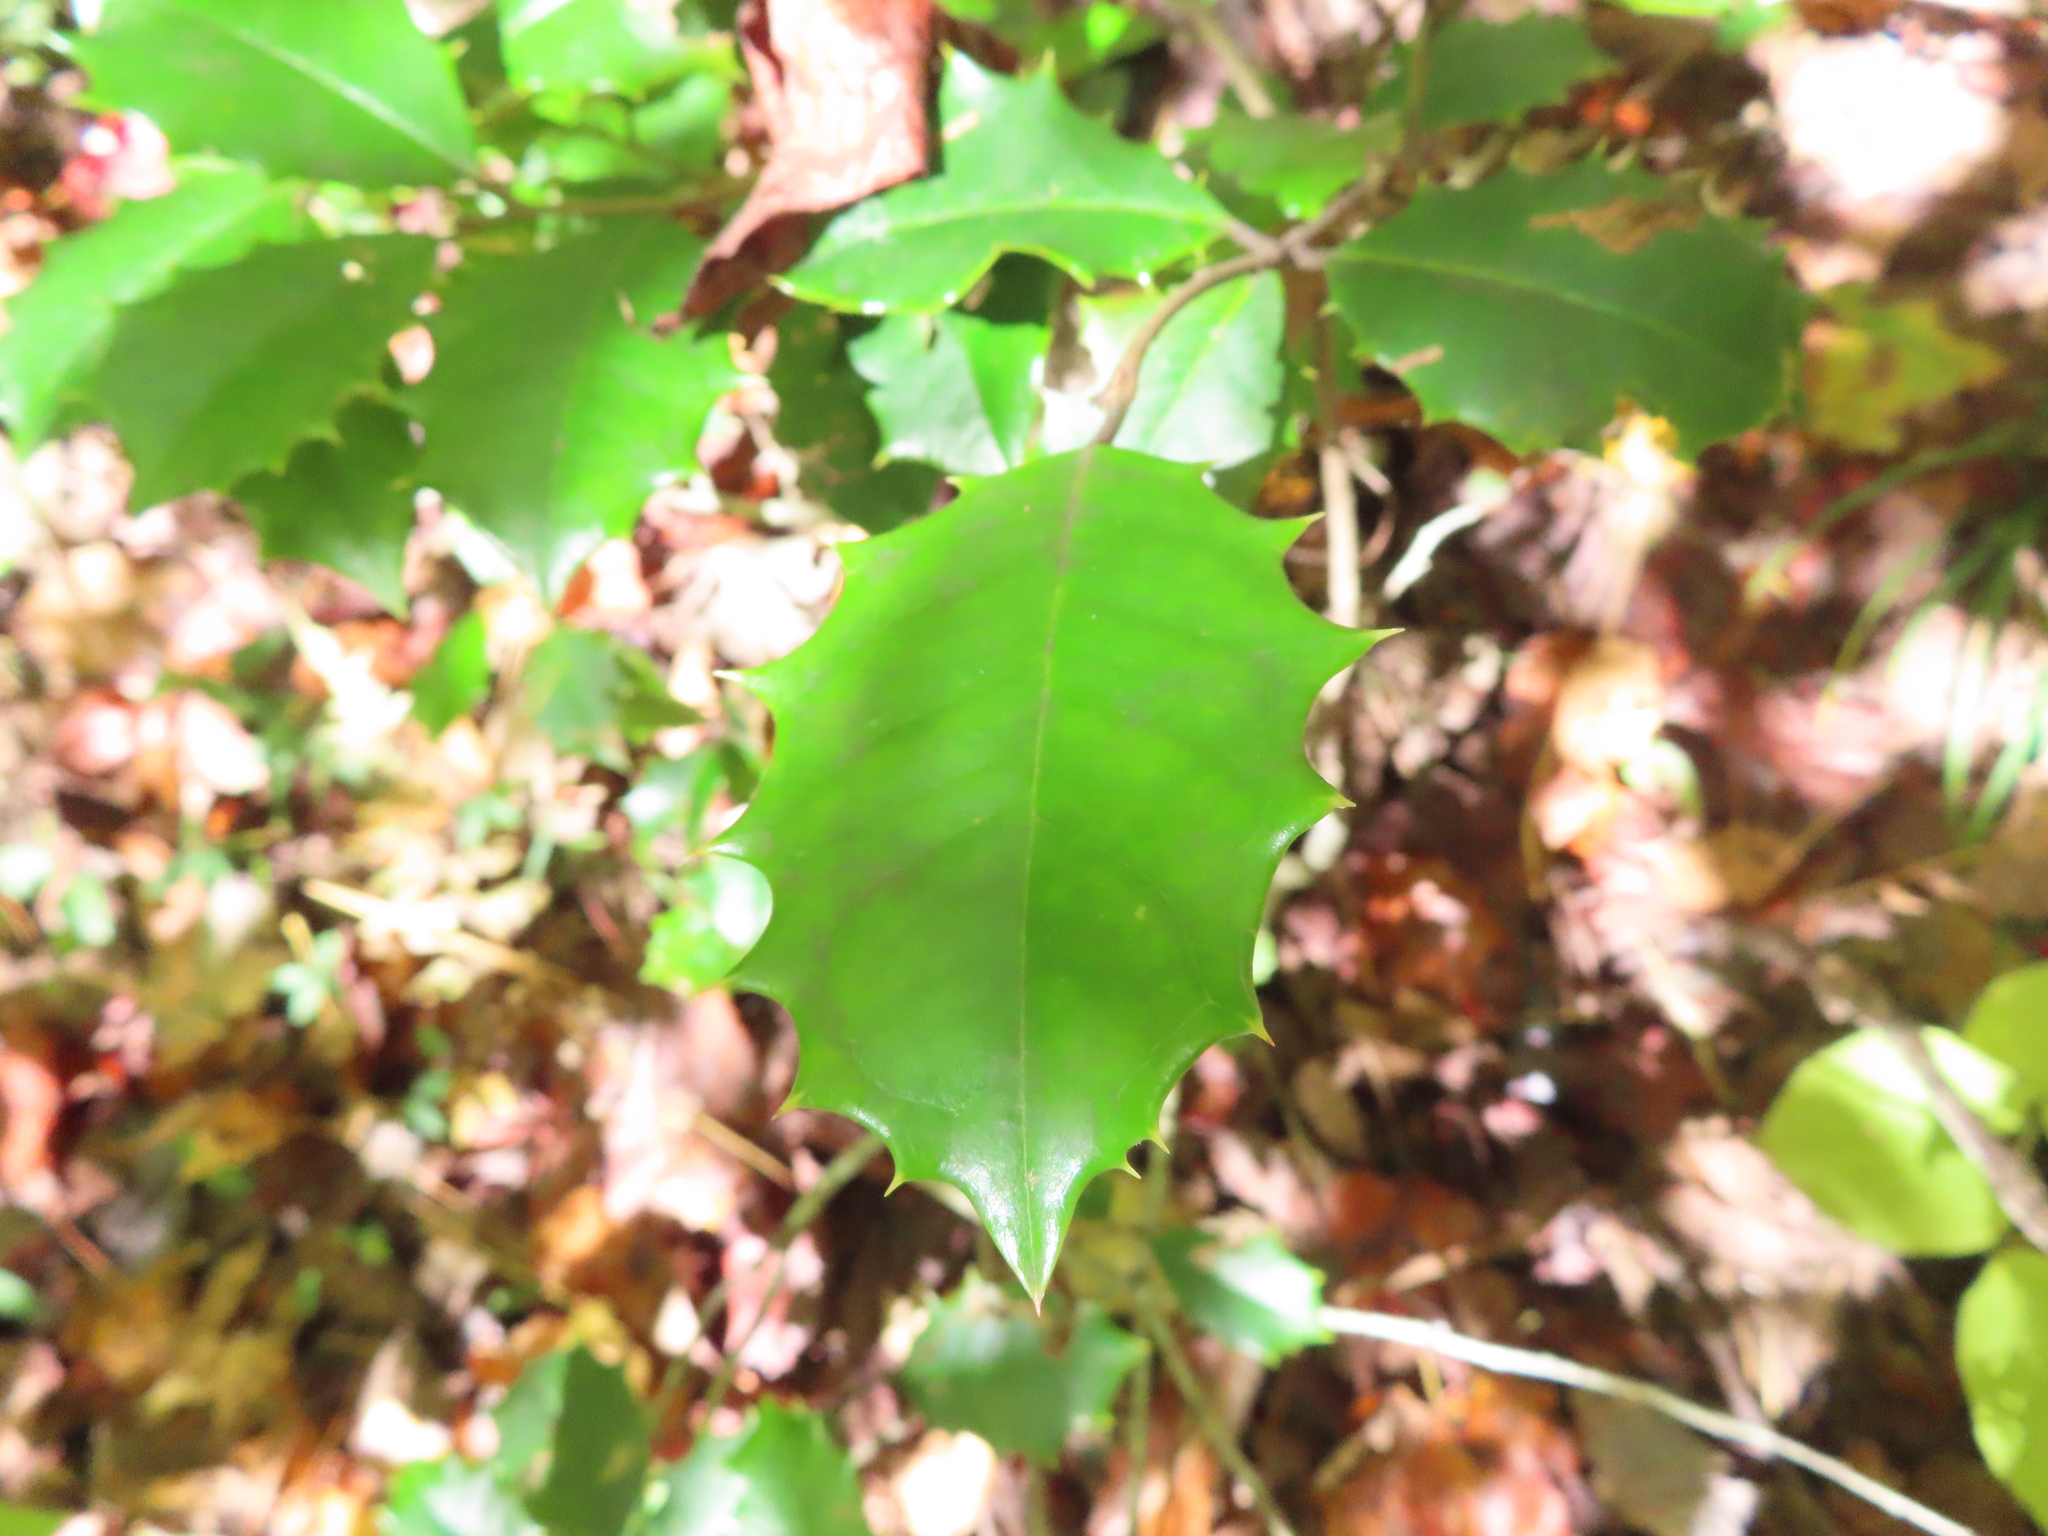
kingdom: Plantae
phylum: Tracheophyta
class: Magnoliopsida
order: Aquifoliales
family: Aquifoliaceae
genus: Ilex
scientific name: Ilex opaca
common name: American holly
